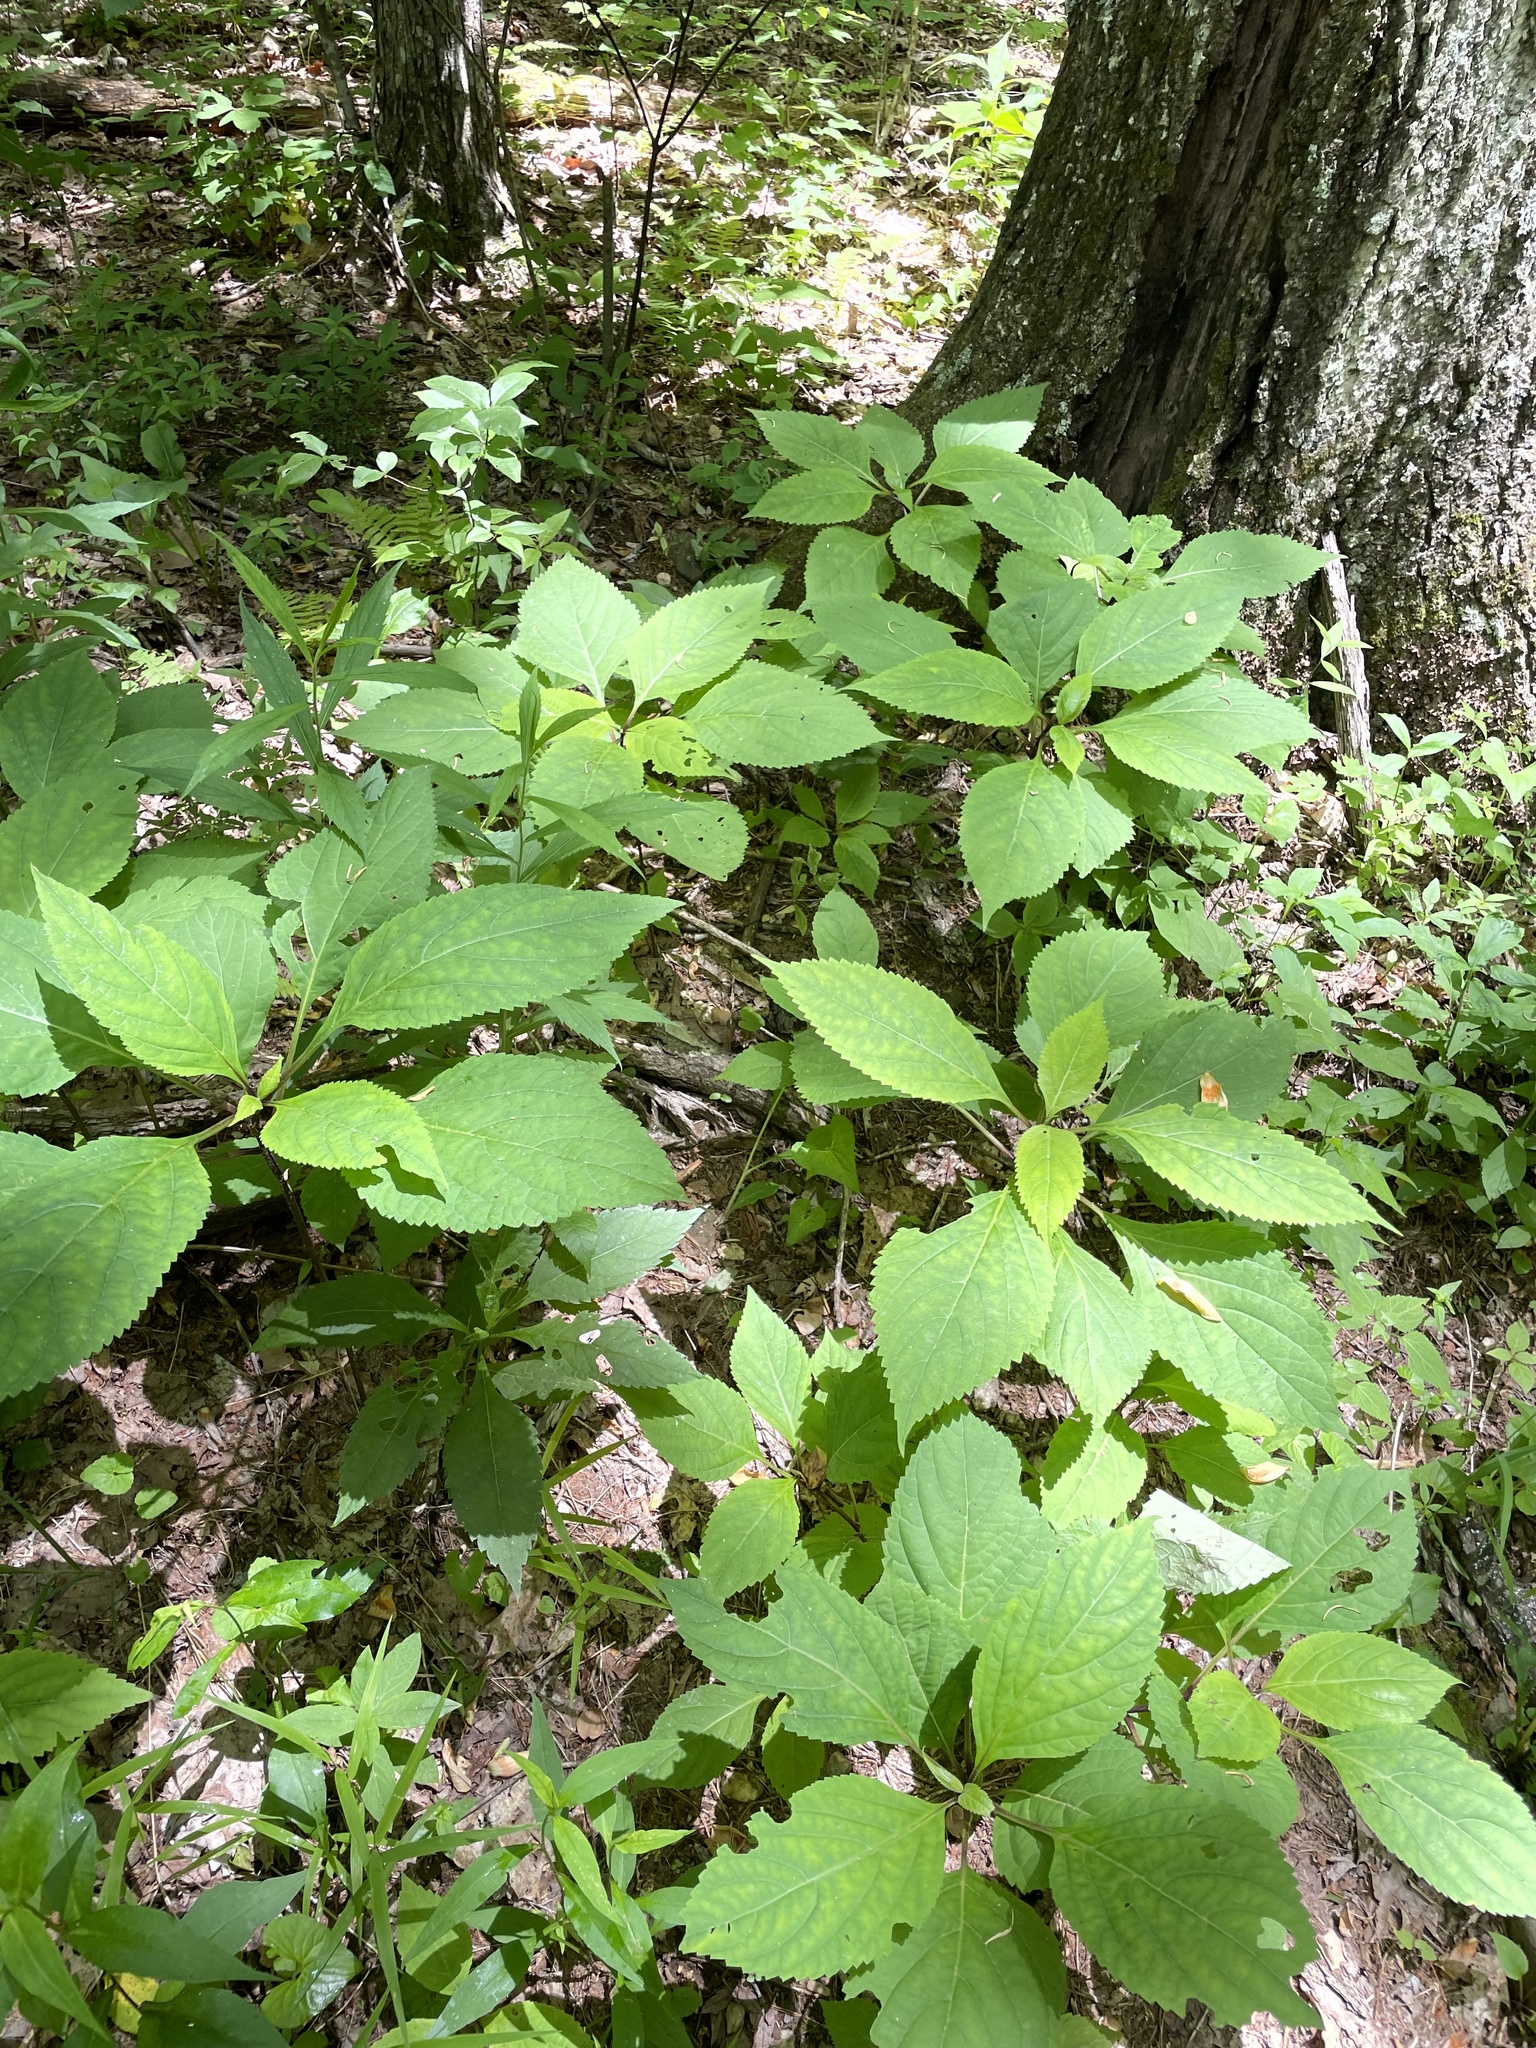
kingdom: Plantae
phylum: Tracheophyta
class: Magnoliopsida
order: Lamiales
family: Lamiaceae
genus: Collinsonia
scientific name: Collinsonia canadensis
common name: Northern horsebalm
